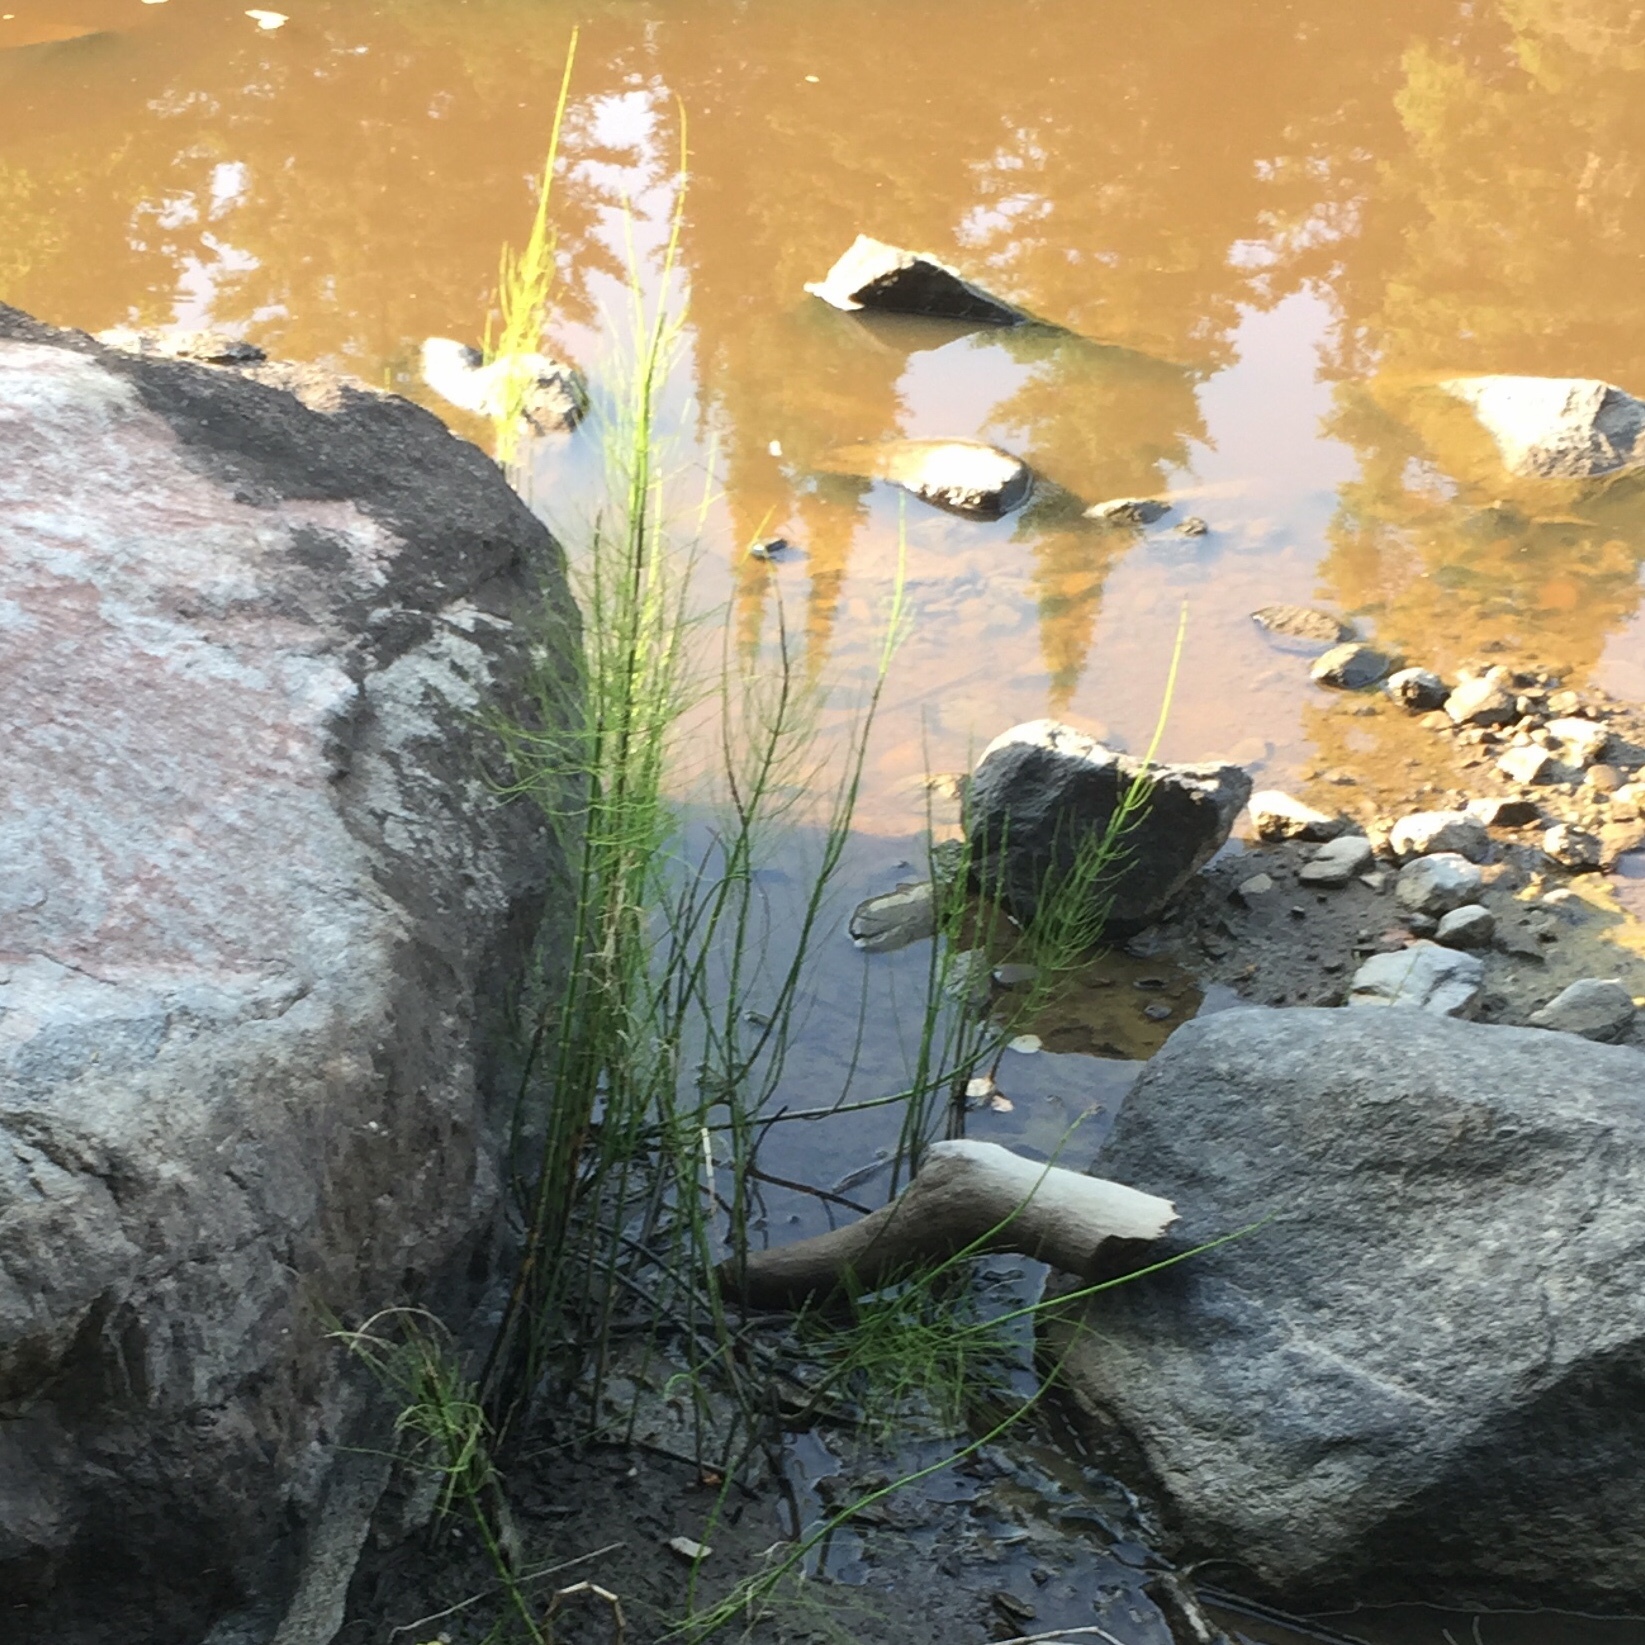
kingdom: Plantae
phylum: Tracheophyta
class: Polypodiopsida
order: Equisetales
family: Equisetaceae
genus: Equisetum
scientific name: Equisetum fluviatile
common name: Water horsetail
